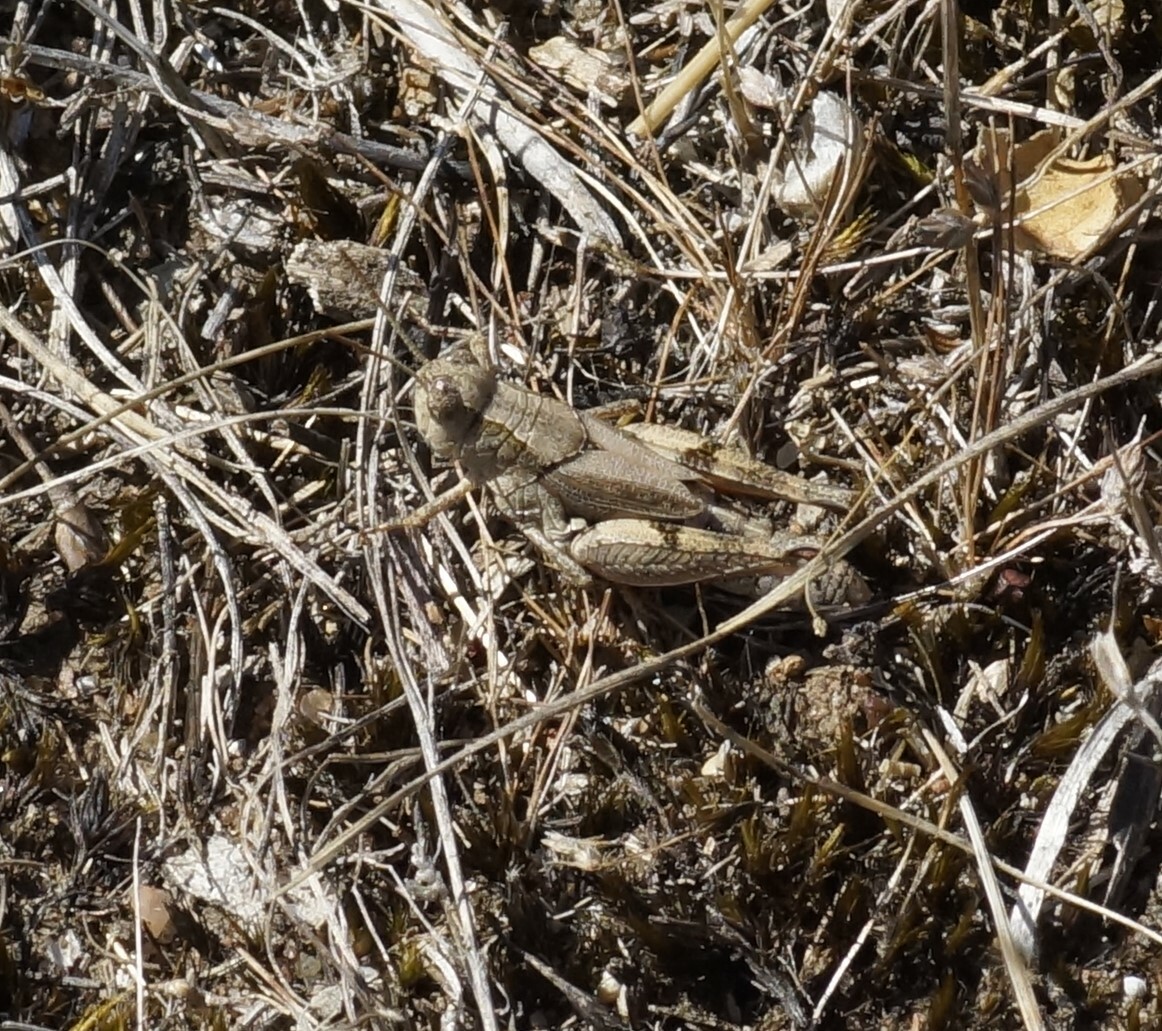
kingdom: Animalia
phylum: Arthropoda
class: Insecta
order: Orthoptera
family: Acrididae
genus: Phaulacridium
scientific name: Phaulacridium vittatum
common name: Wingless grasshopper
